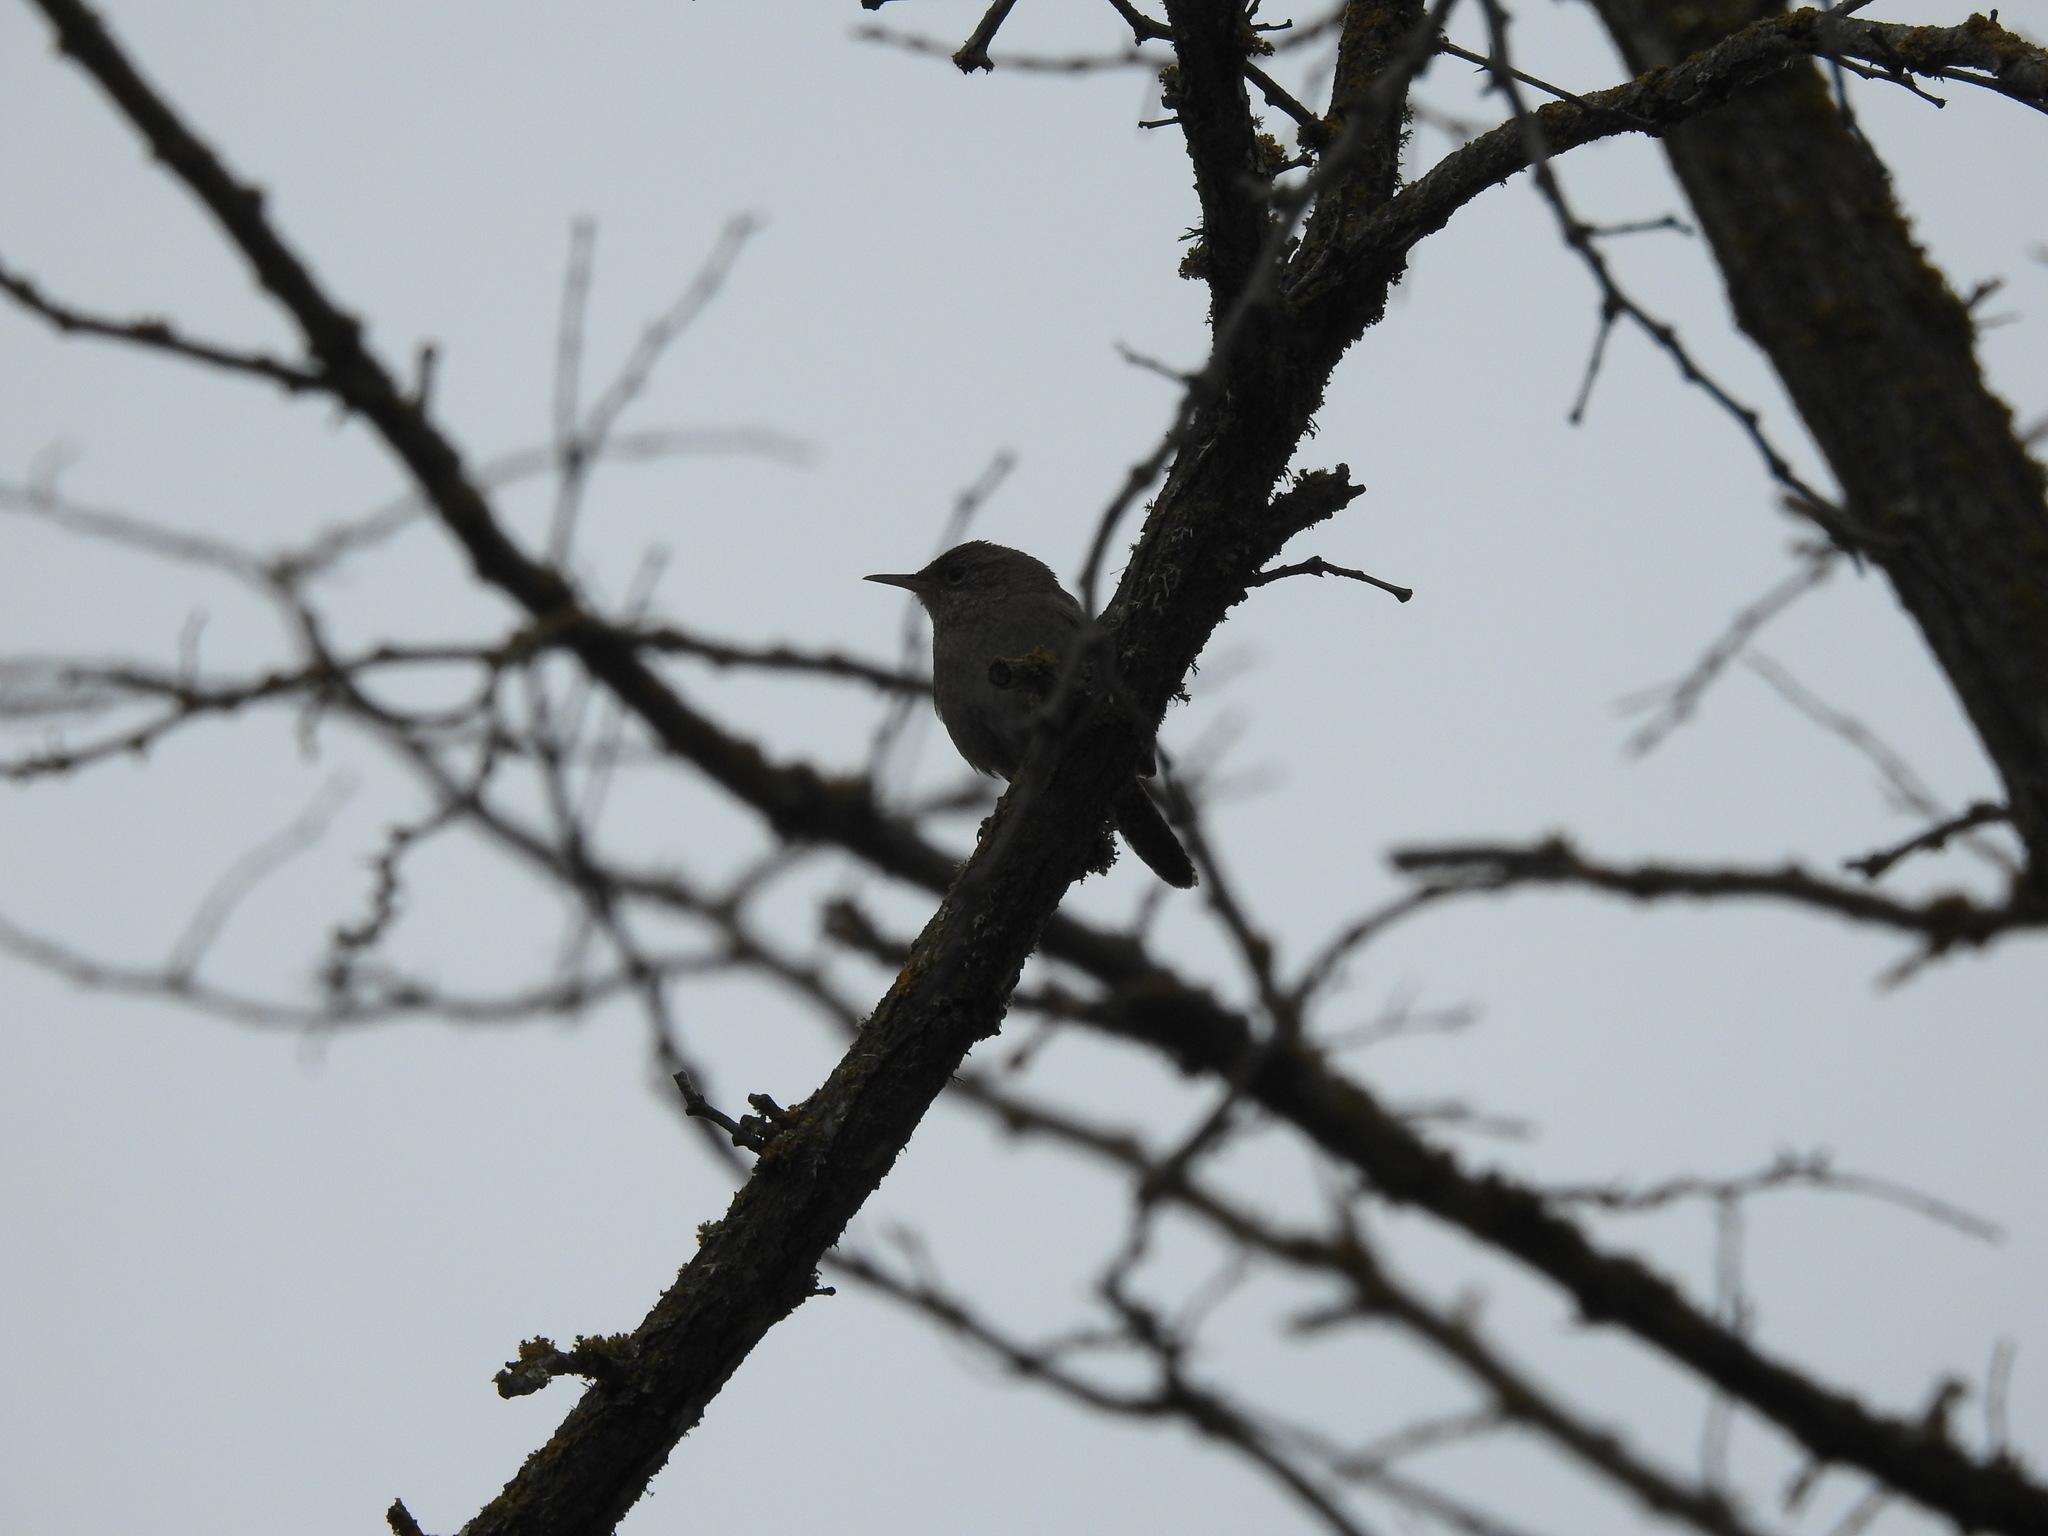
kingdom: Animalia
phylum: Chordata
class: Aves
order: Passeriformes
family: Troglodytidae
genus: Troglodytes
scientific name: Troglodytes aedon
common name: House wren
